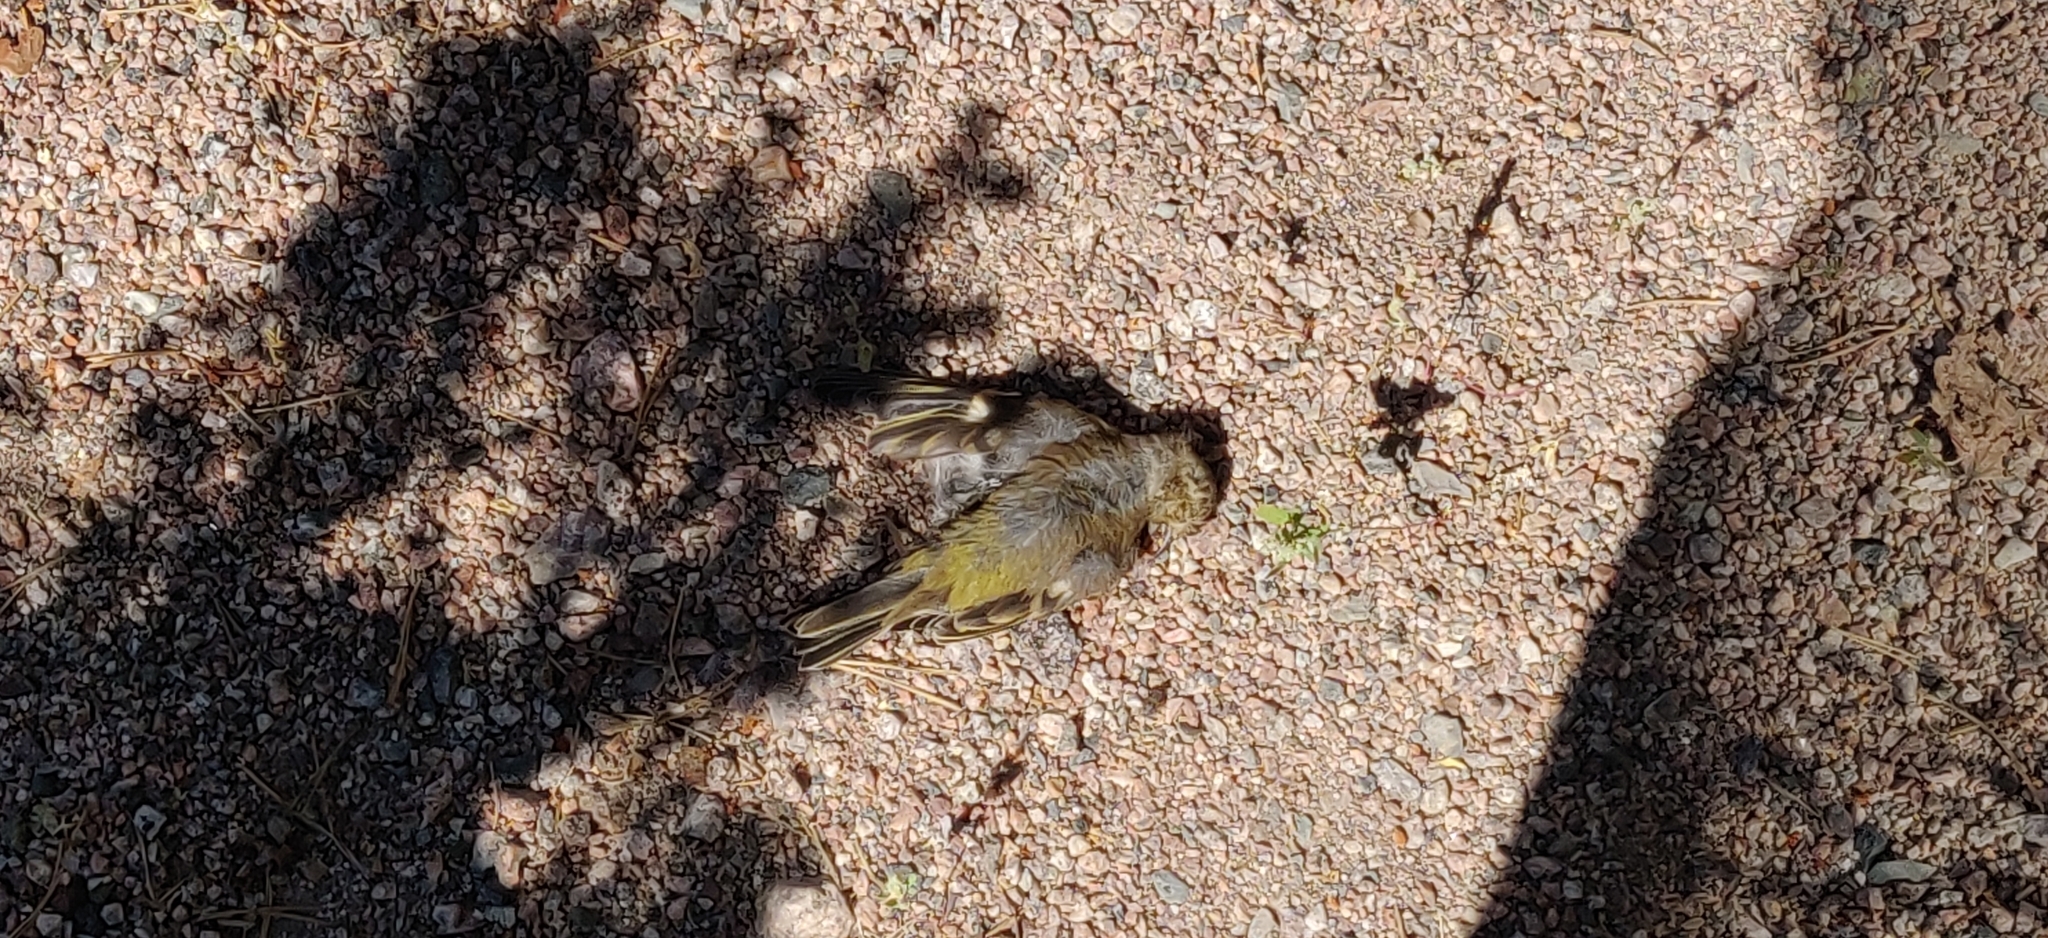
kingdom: Plantae
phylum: Tracheophyta
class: Liliopsida
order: Poales
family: Poaceae
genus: Chloris
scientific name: Chloris chloris
